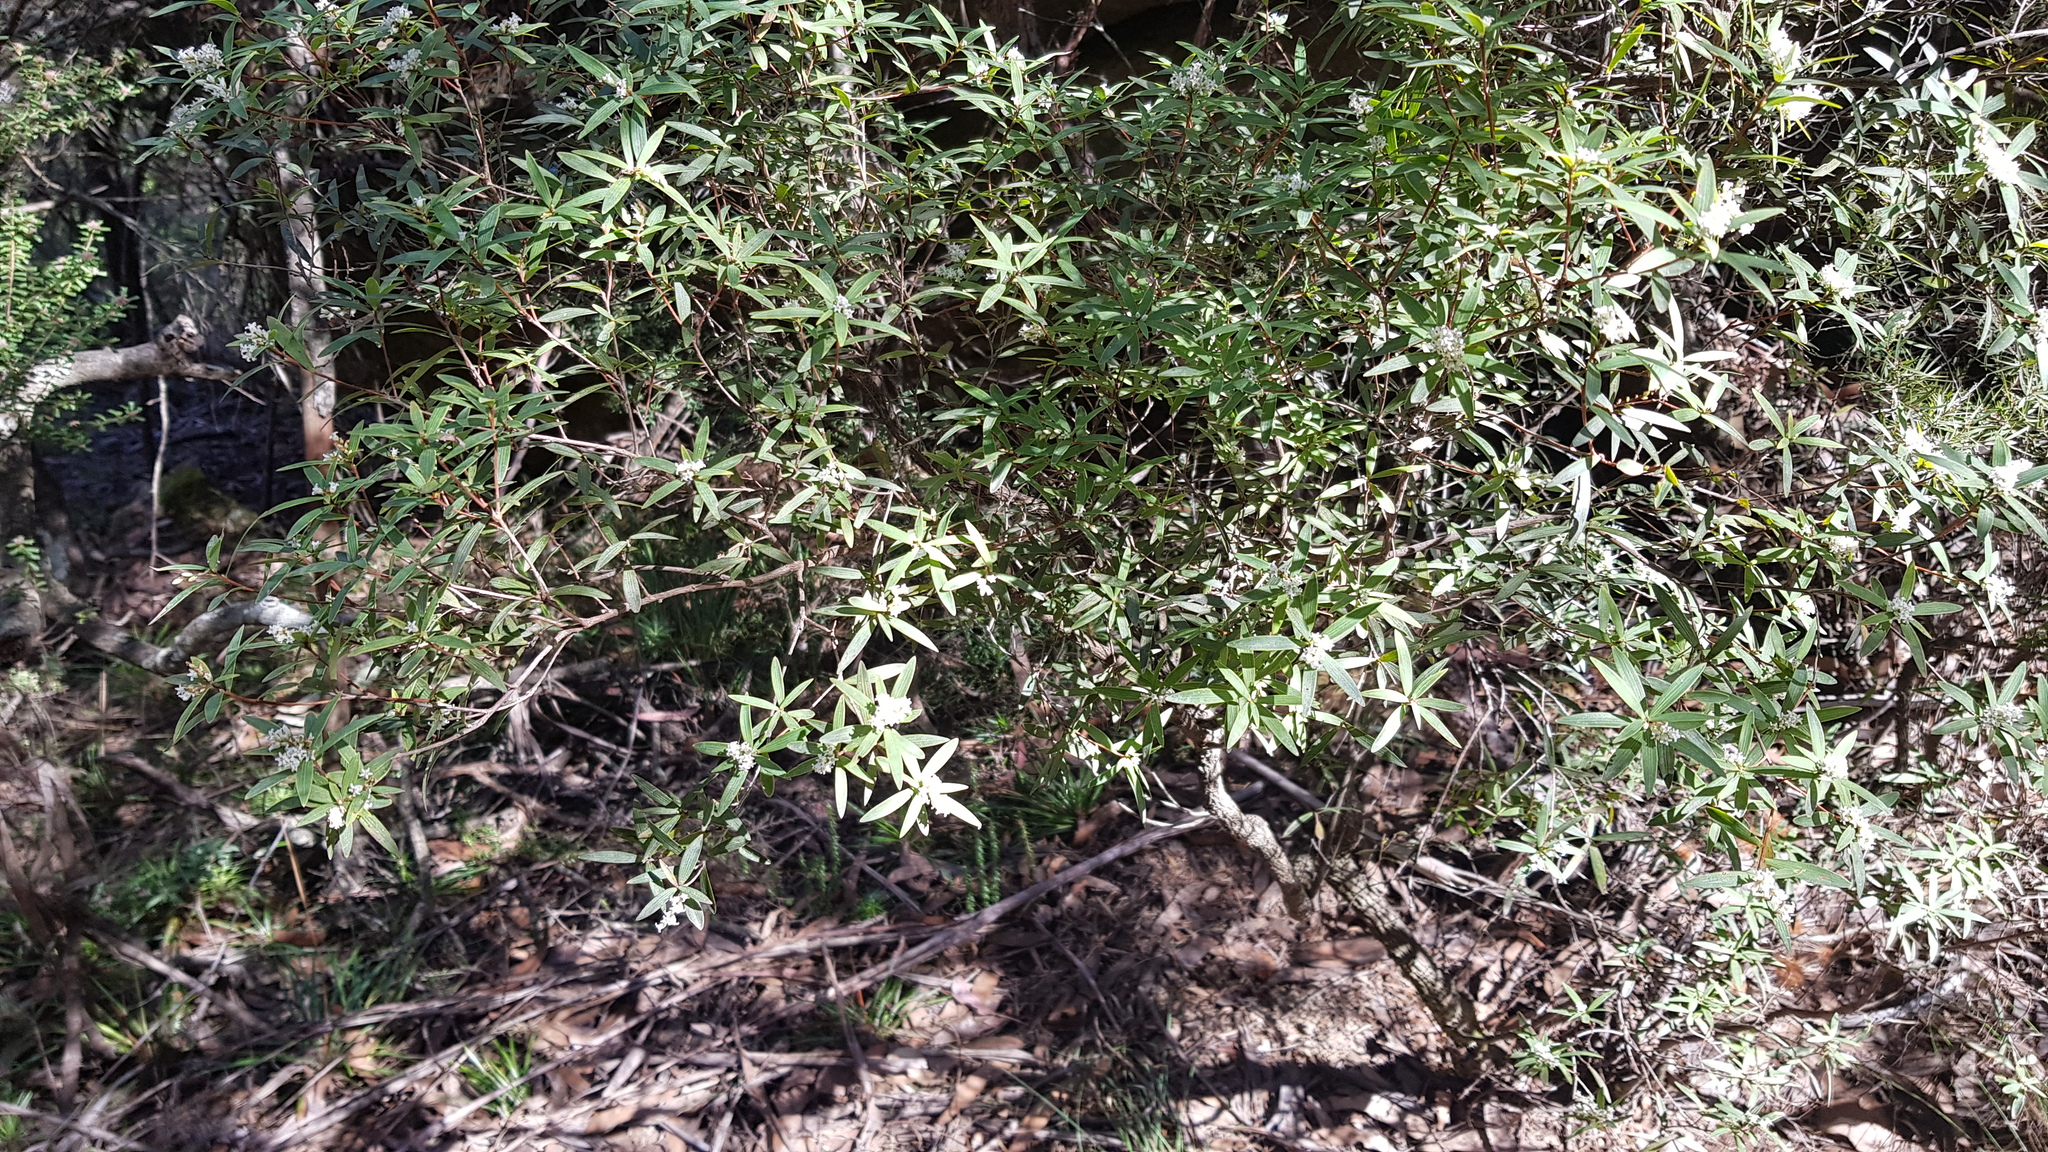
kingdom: Plantae
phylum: Tracheophyta
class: Magnoliopsida
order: Ericales
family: Ericaceae
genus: Leucopogon
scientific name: Leucopogon lanceolatus
